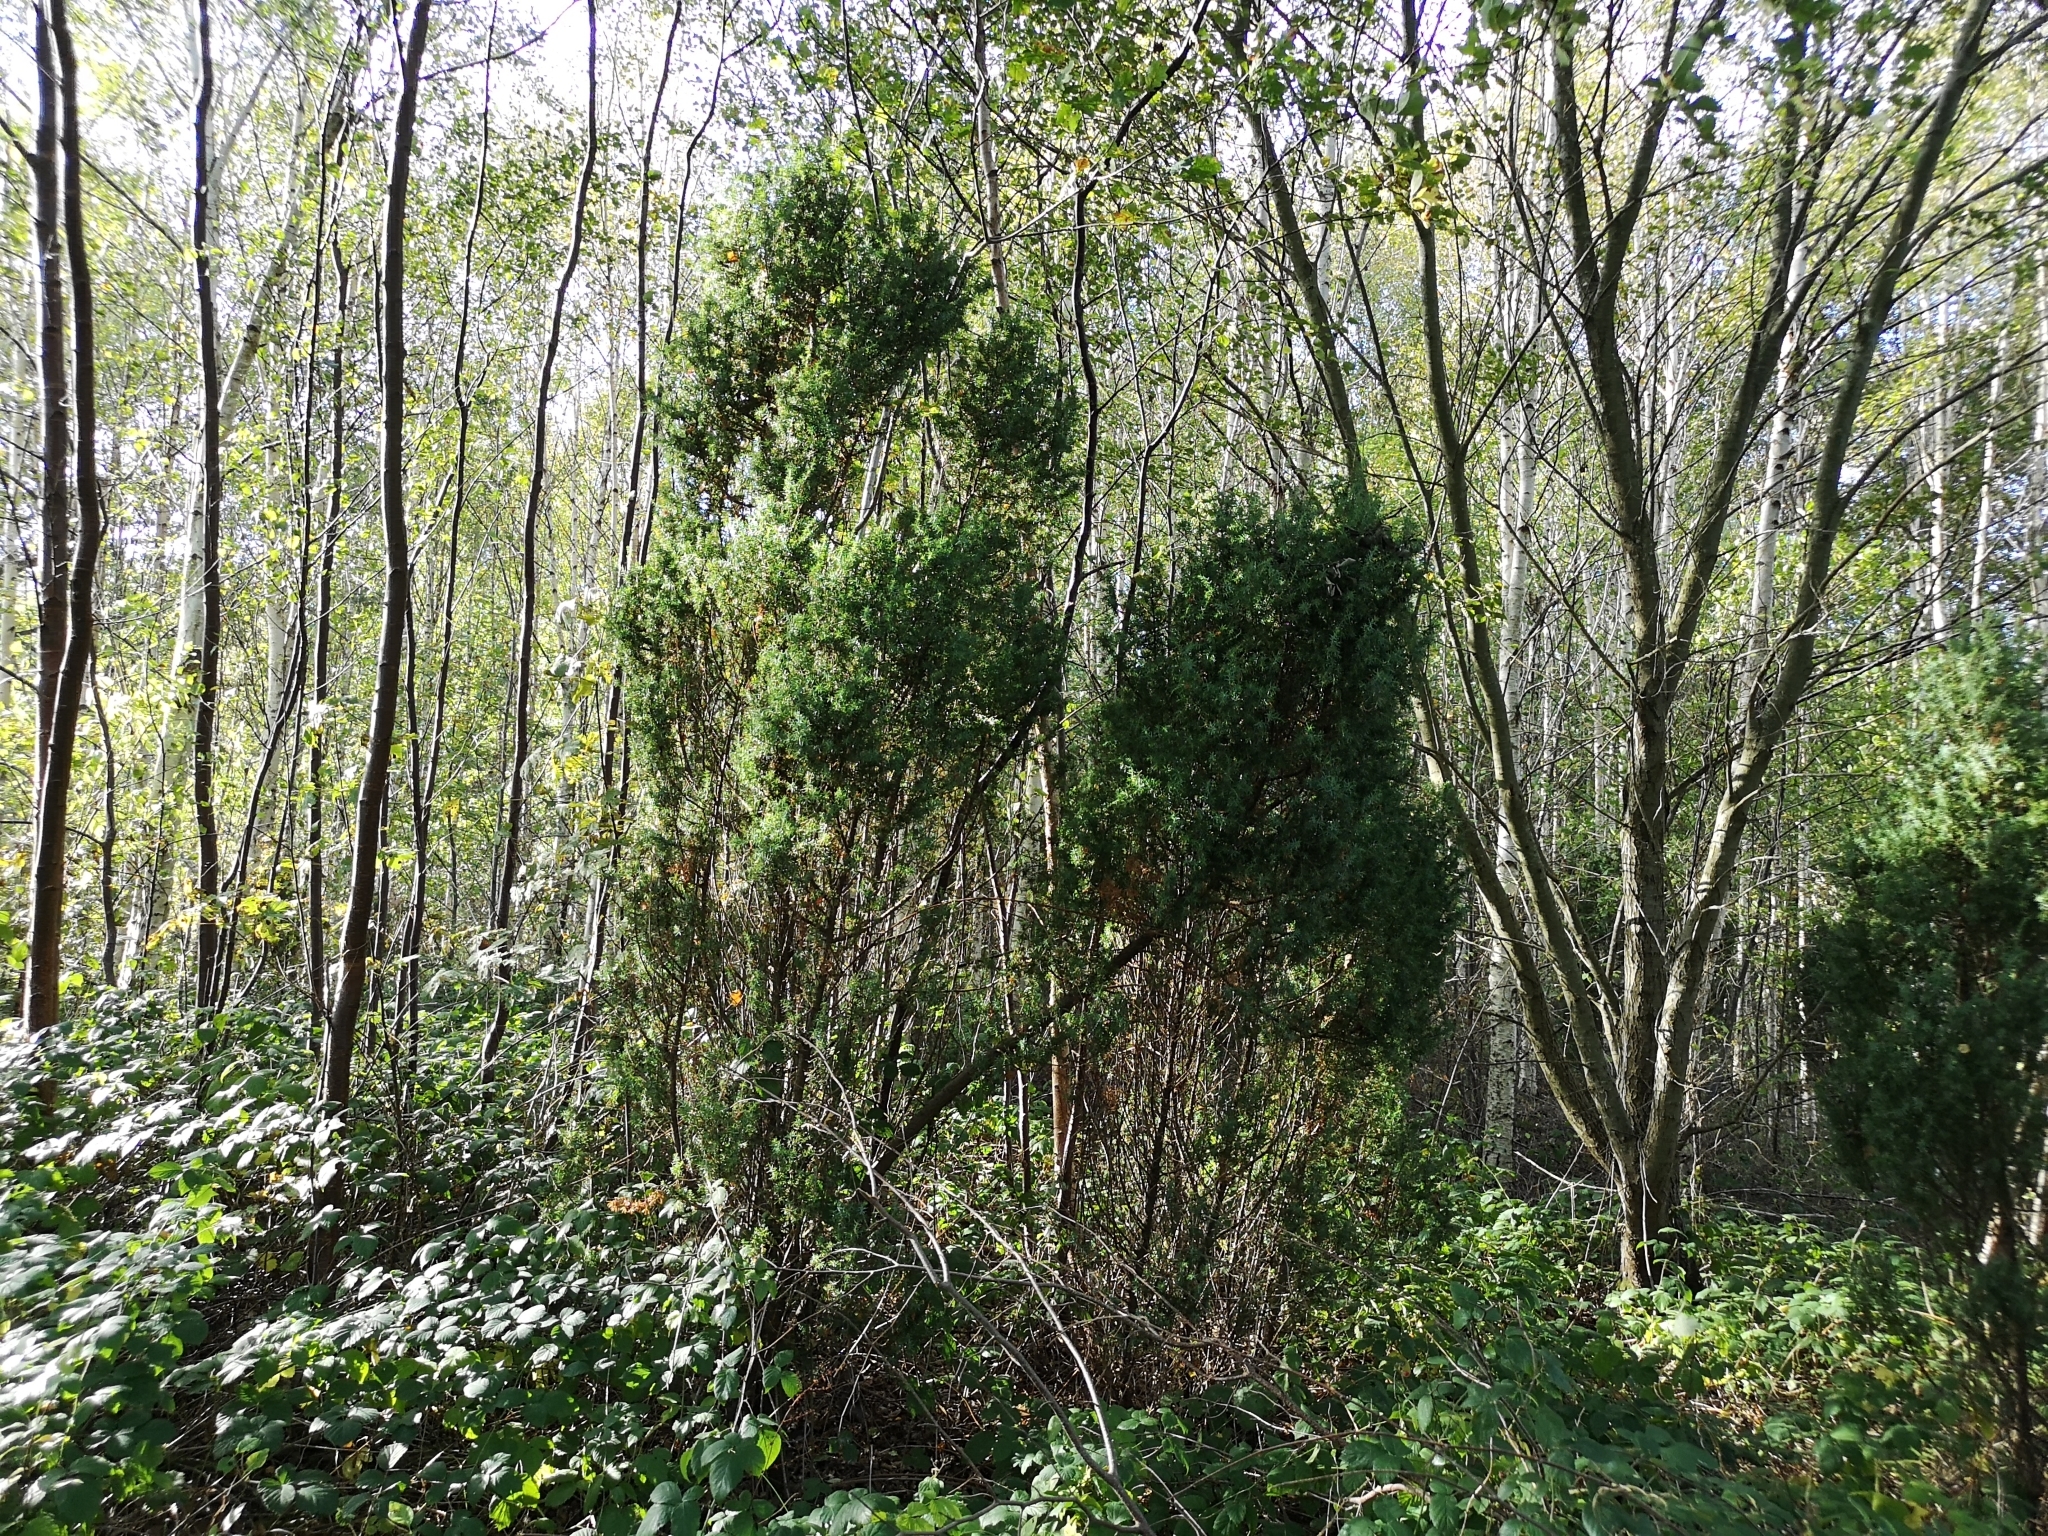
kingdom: Plantae
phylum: Tracheophyta
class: Pinopsida
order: Pinales
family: Cupressaceae
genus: Juniperus
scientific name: Juniperus communis
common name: Common juniper
